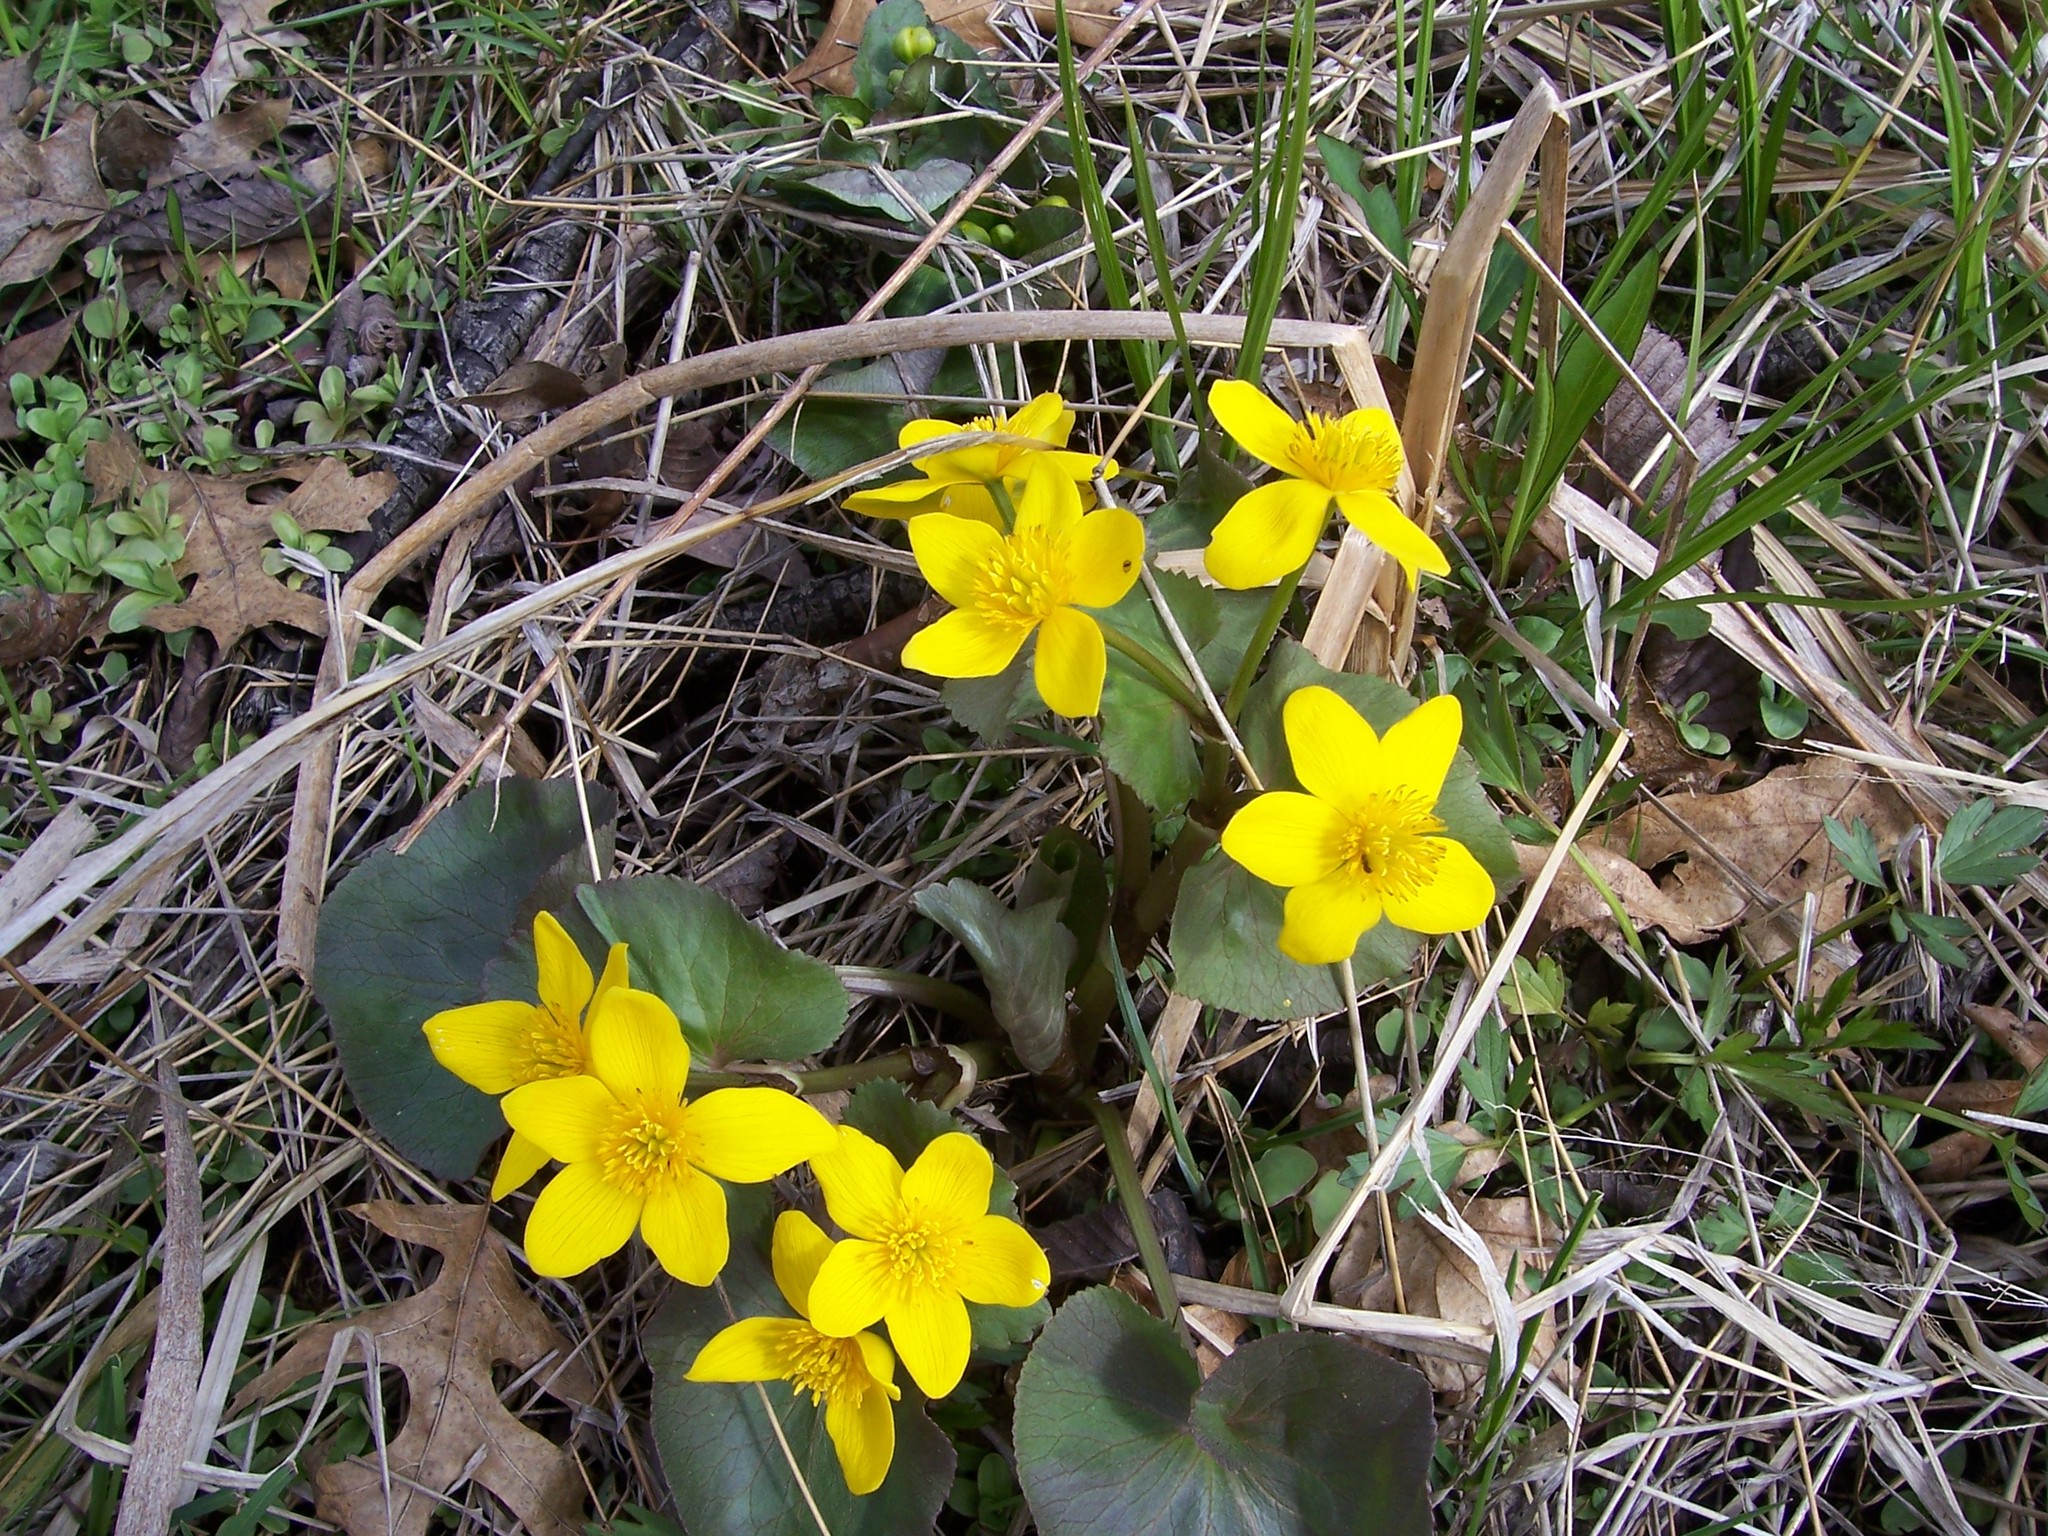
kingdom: Plantae
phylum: Tracheophyta
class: Magnoliopsida
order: Ranunculales
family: Ranunculaceae
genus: Caltha
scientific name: Caltha palustris
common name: Marsh marigold
